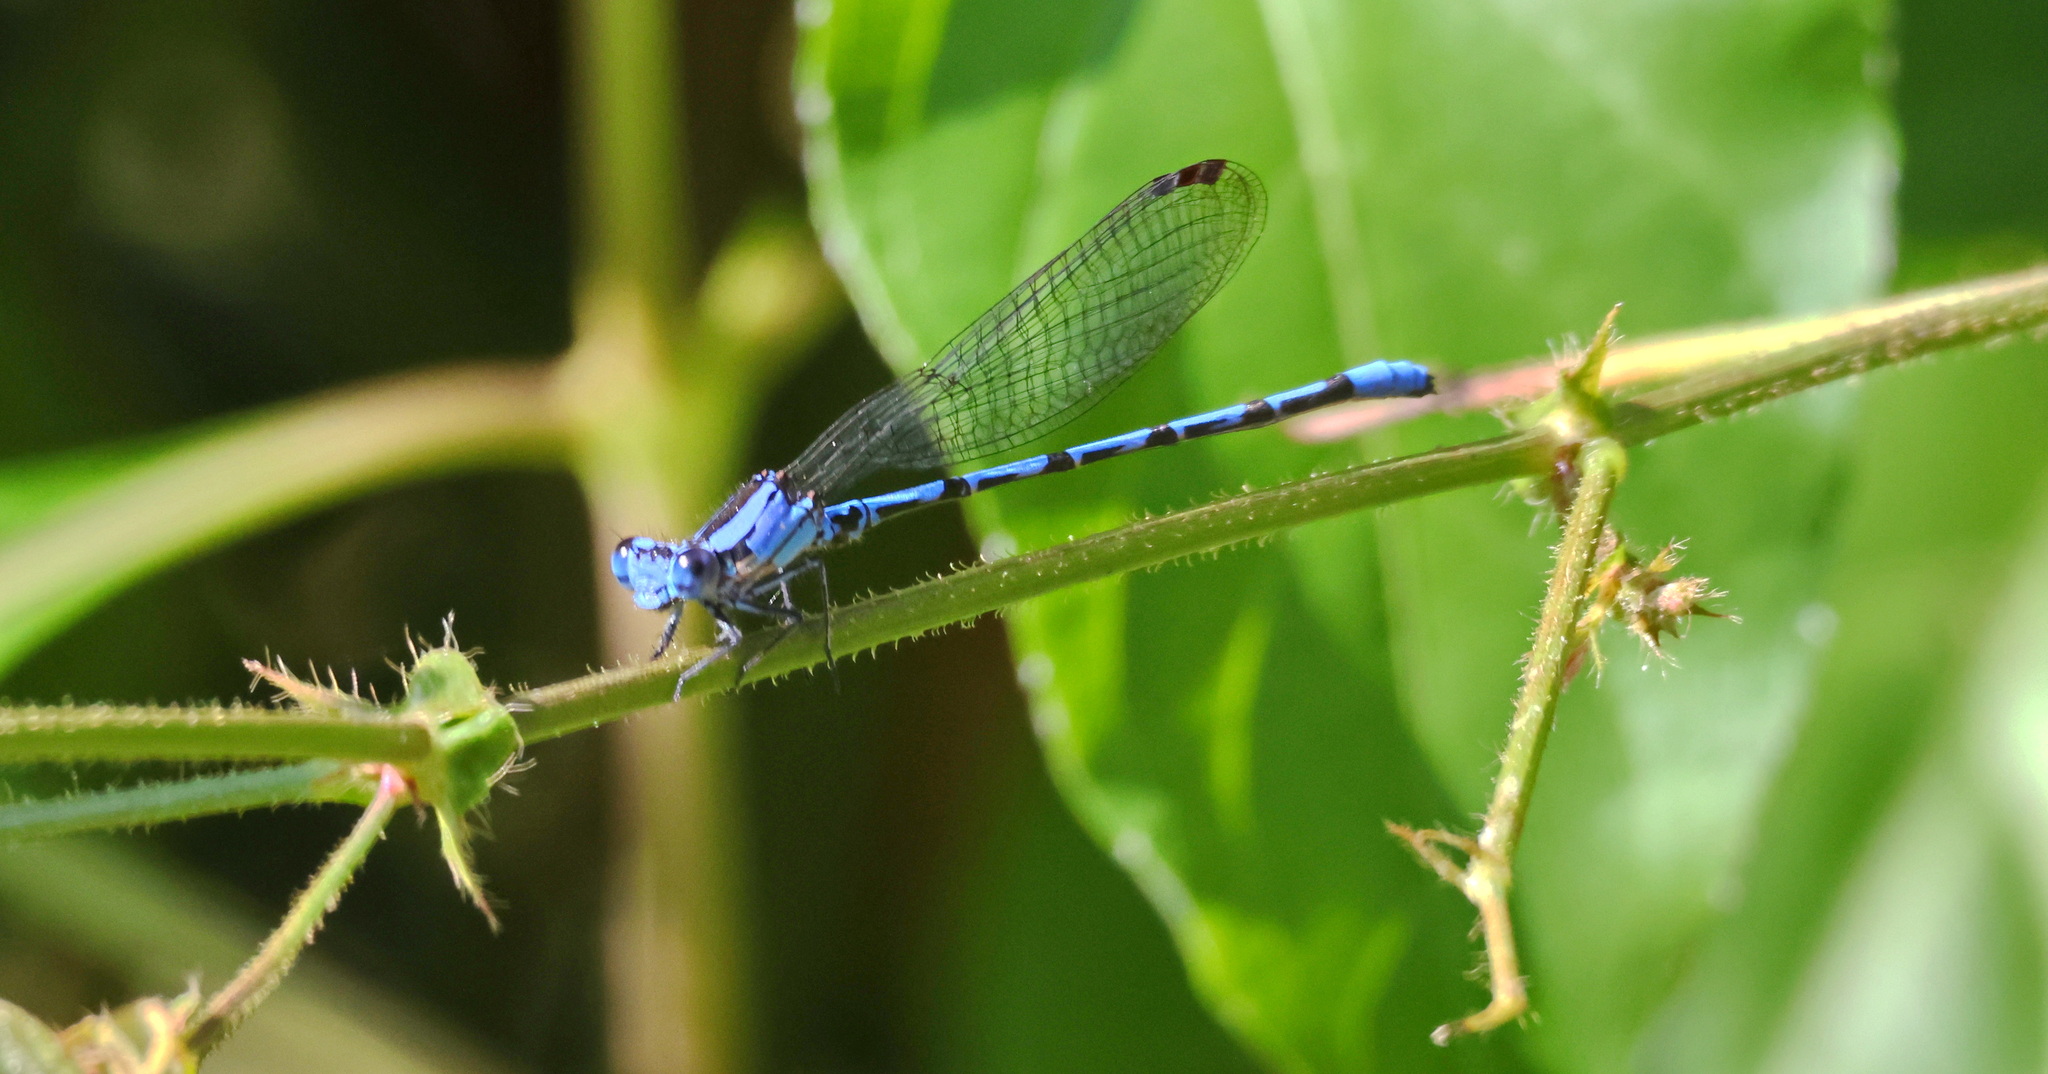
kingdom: Animalia
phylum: Arthropoda
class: Insecta
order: Odonata
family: Coenagrionidae
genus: Argia
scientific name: Argia elongata
